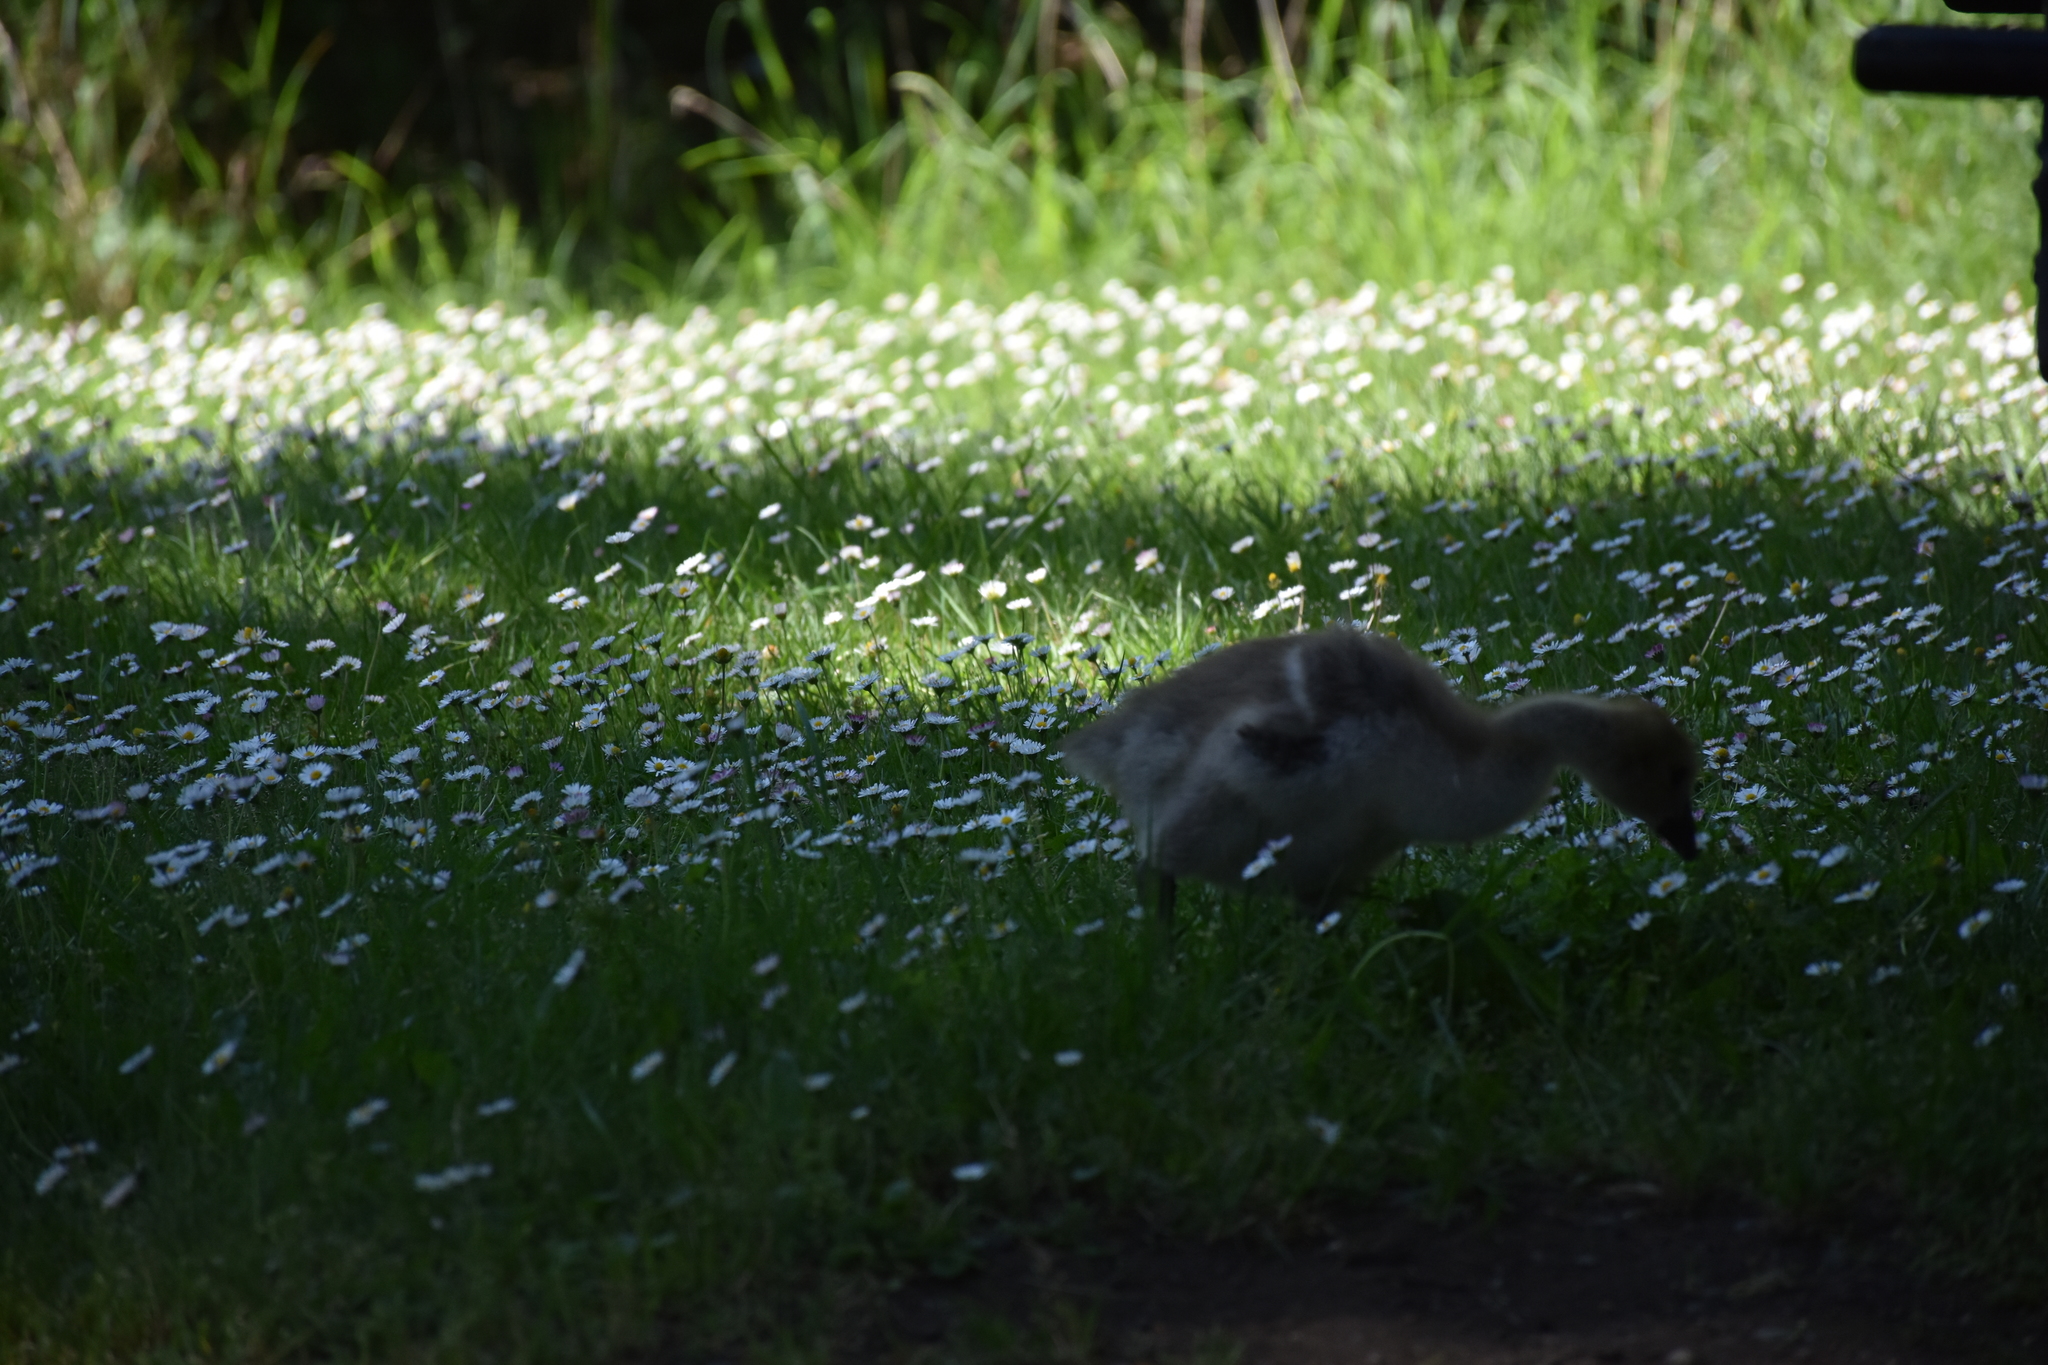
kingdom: Animalia
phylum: Chordata
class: Aves
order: Anseriformes
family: Anatidae
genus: Branta
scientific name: Branta canadensis
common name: Canada goose
